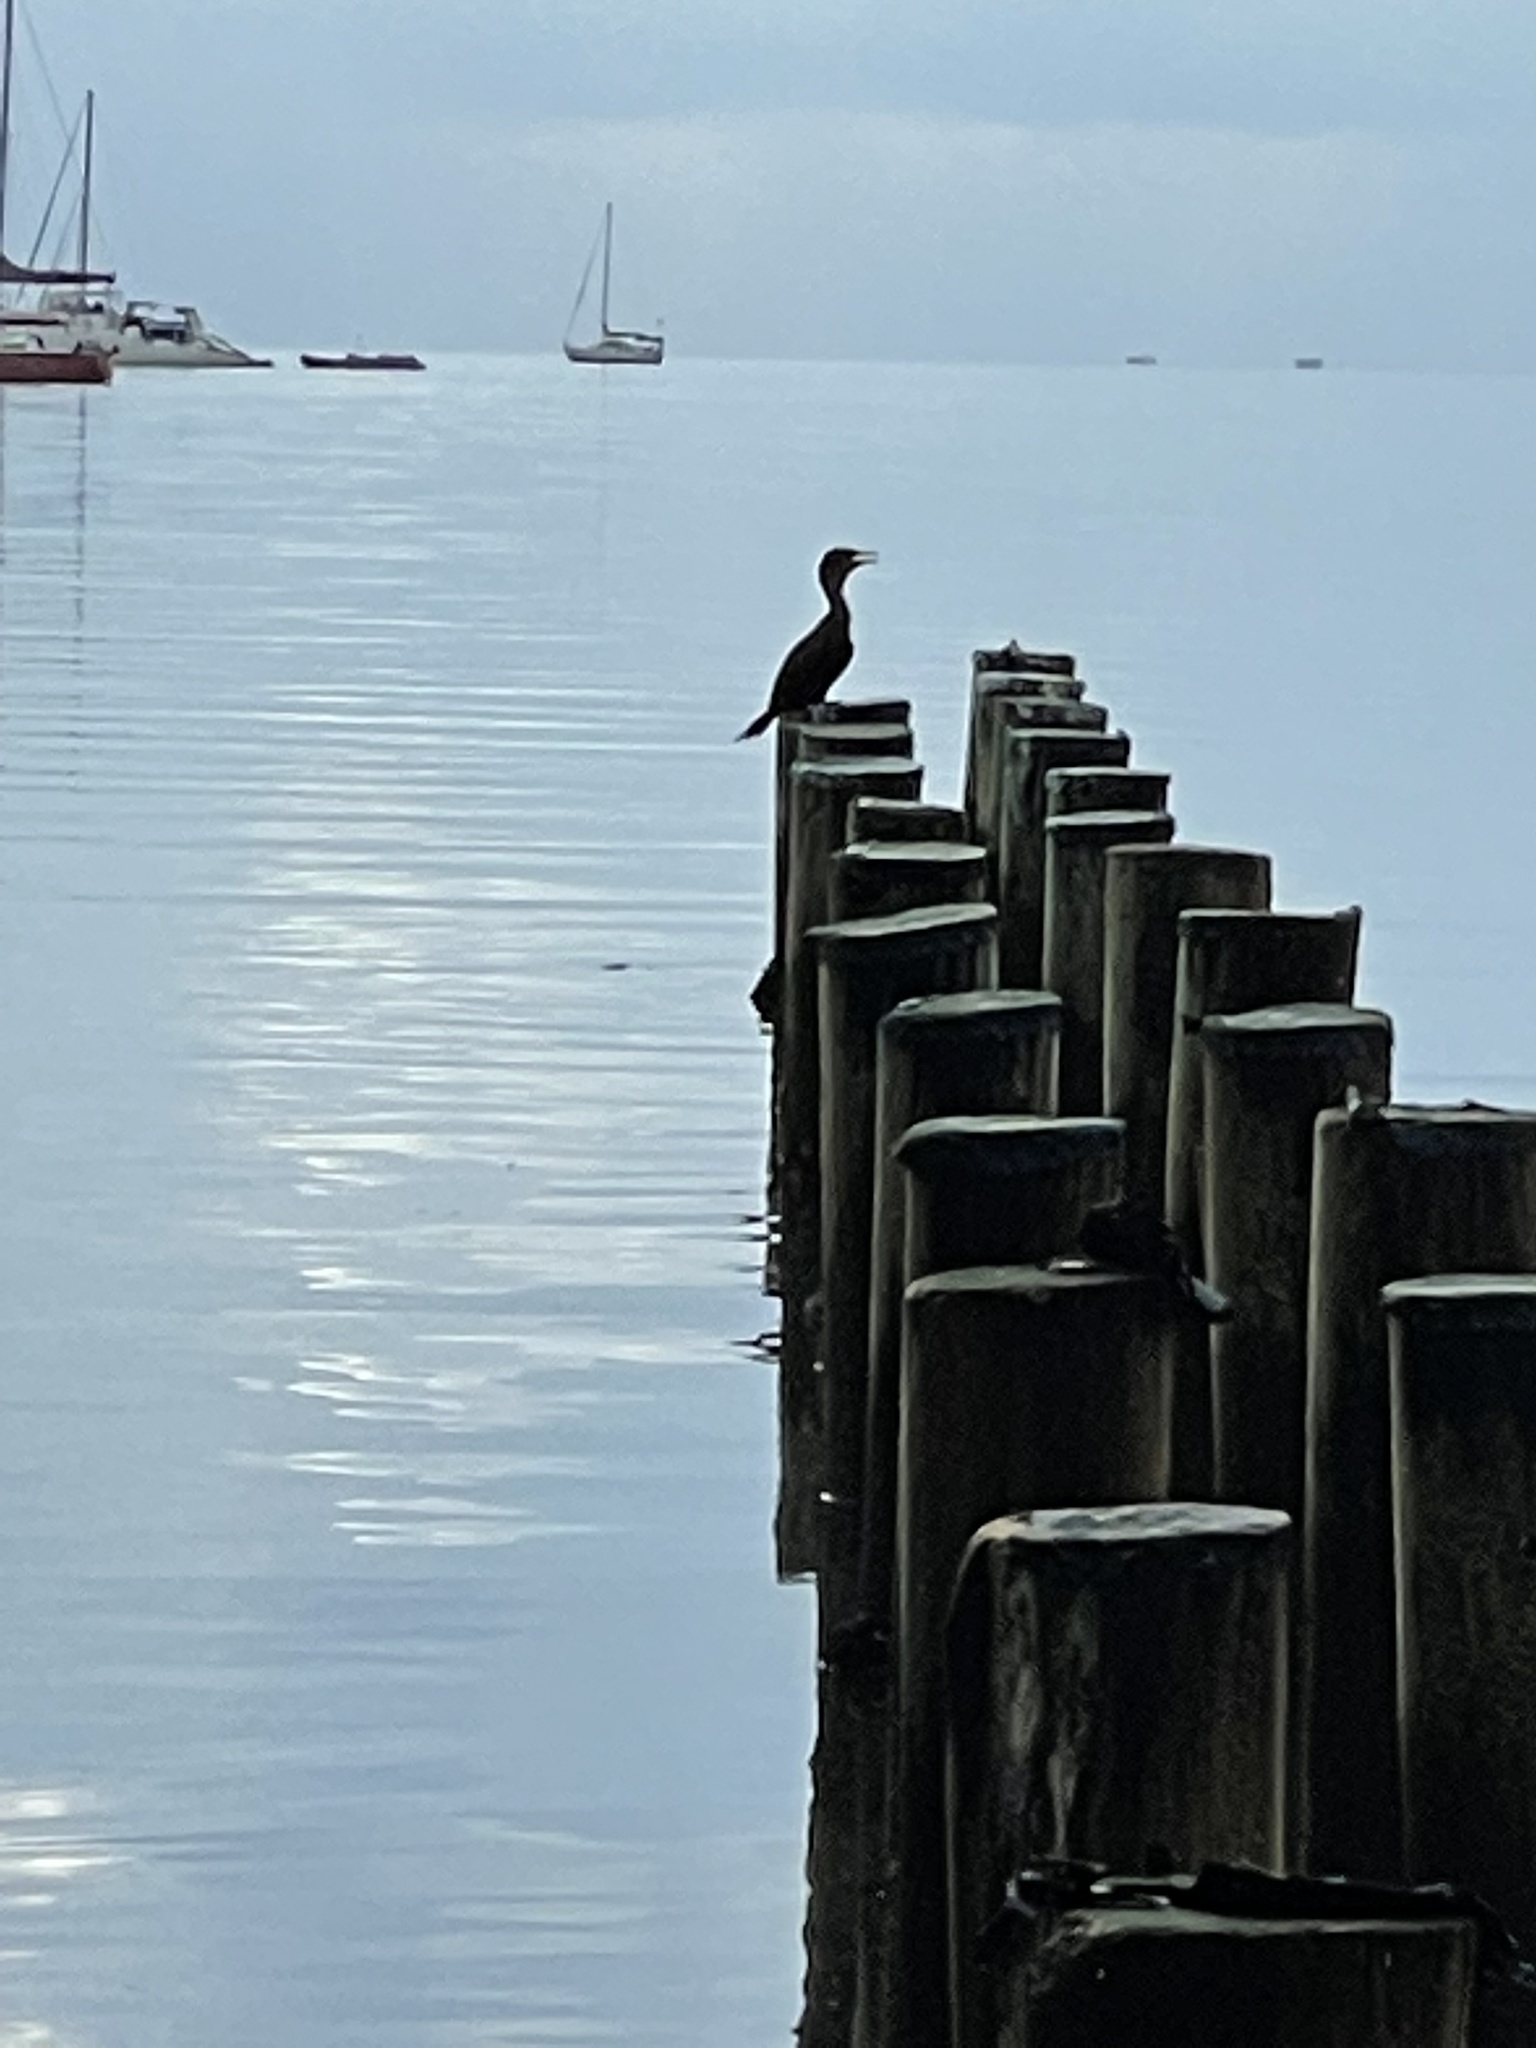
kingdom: Animalia
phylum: Chordata
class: Aves
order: Suliformes
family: Phalacrocoracidae
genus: Phalacrocorax
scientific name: Phalacrocorax auritus
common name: Double-crested cormorant
